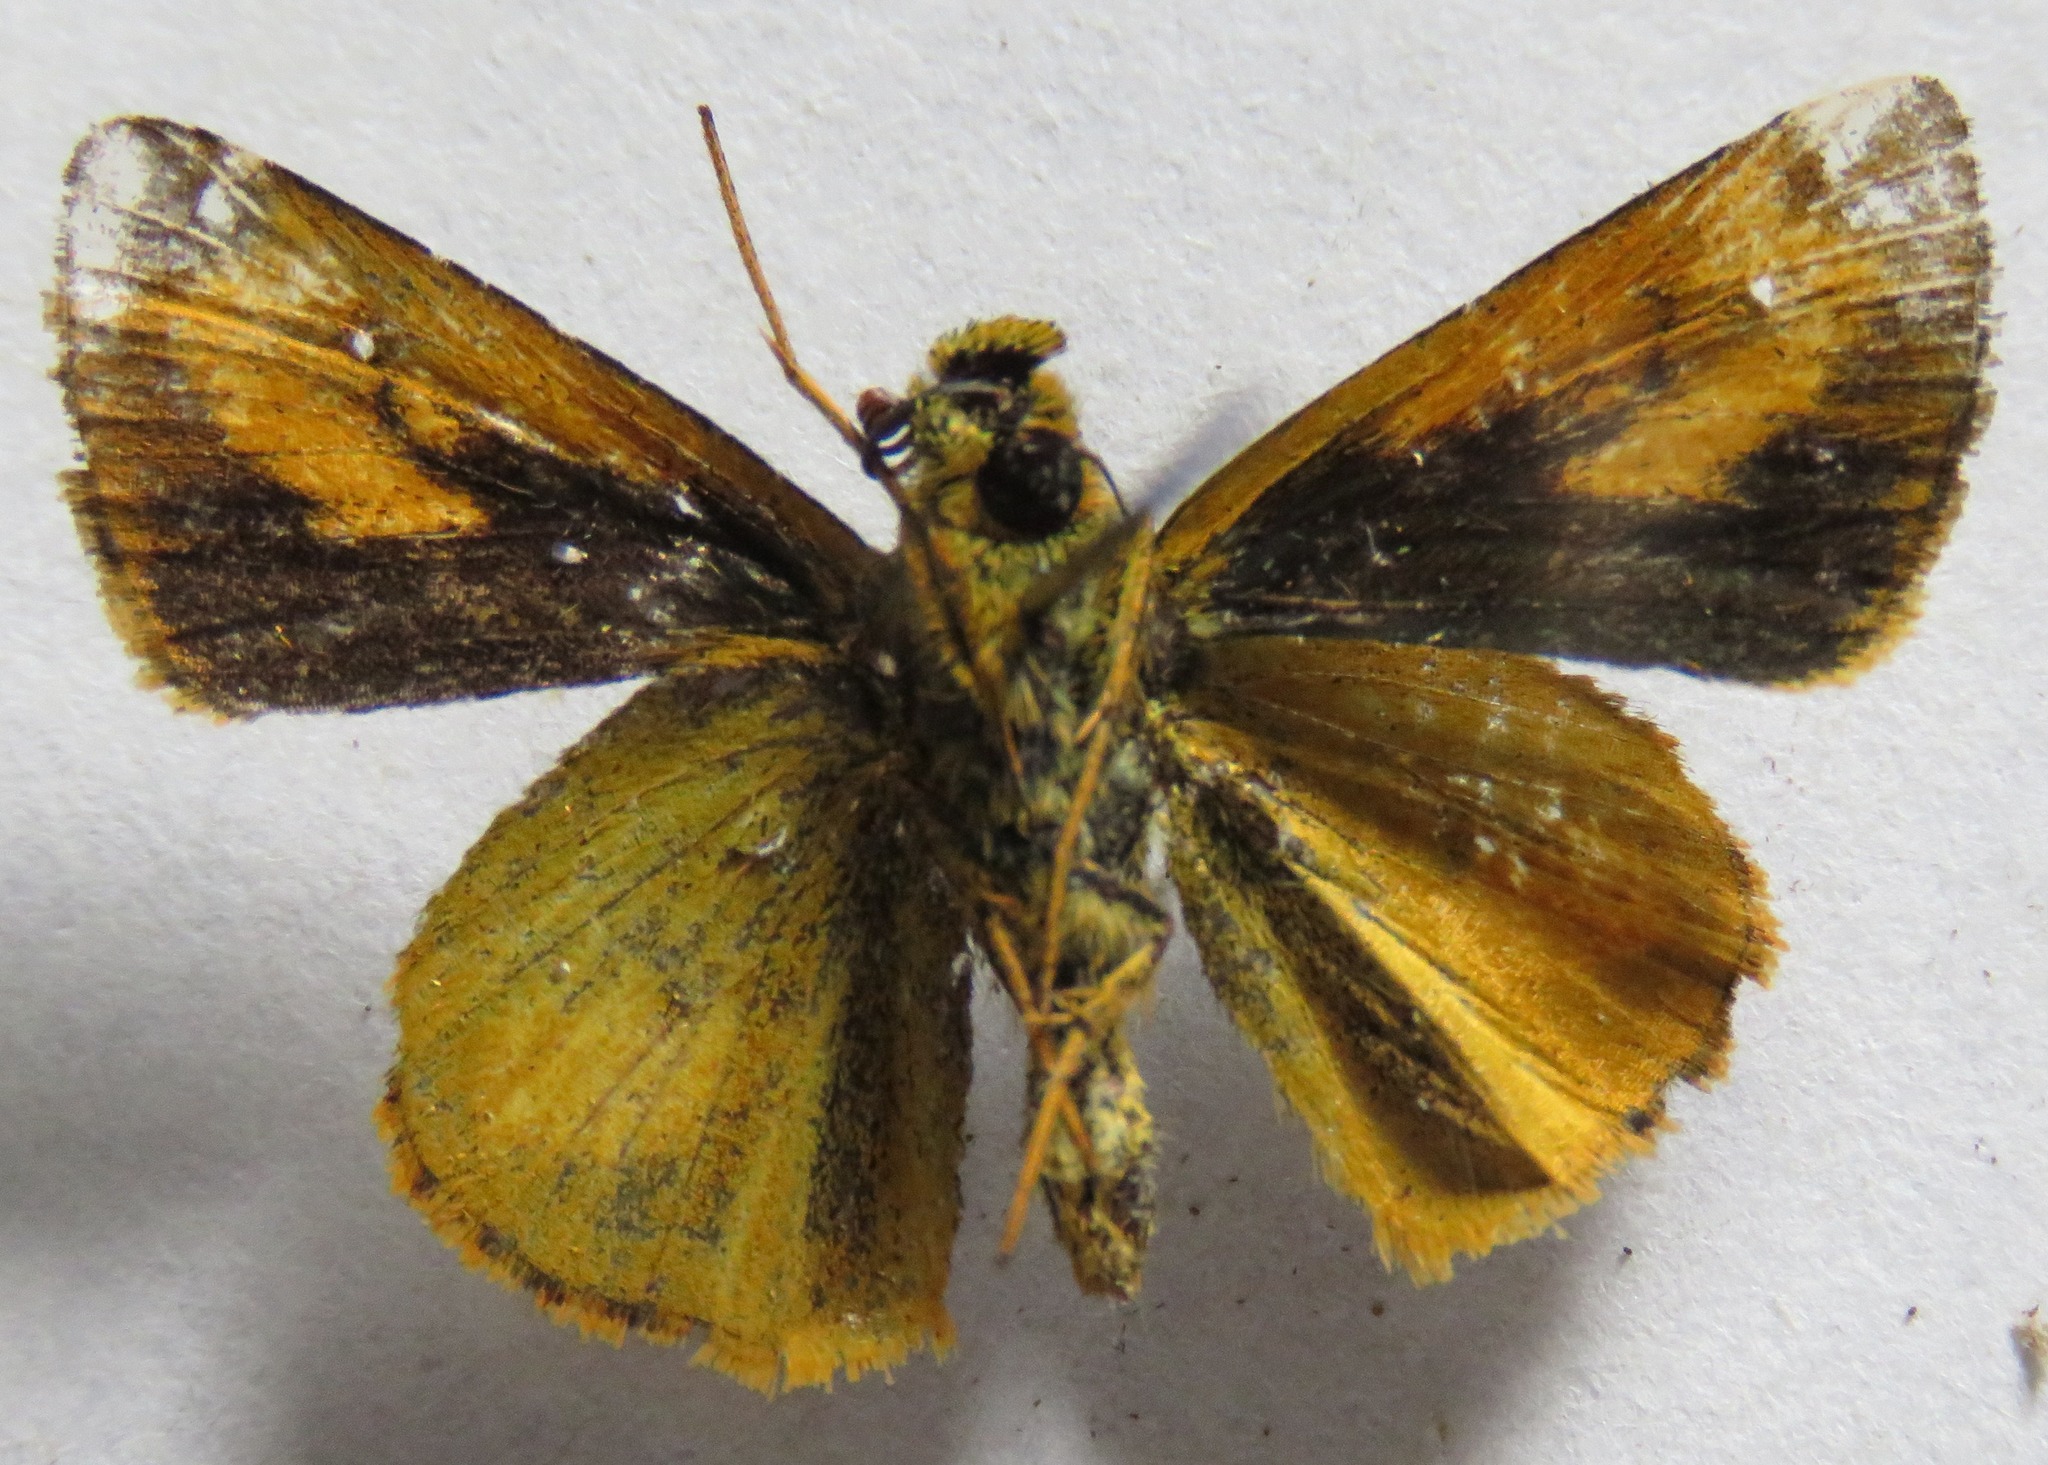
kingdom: Animalia
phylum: Arthropoda
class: Insecta
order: Lepidoptera
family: Hesperiidae
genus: Anthoptus
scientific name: Anthoptus epictetus
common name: Trailside skipper
